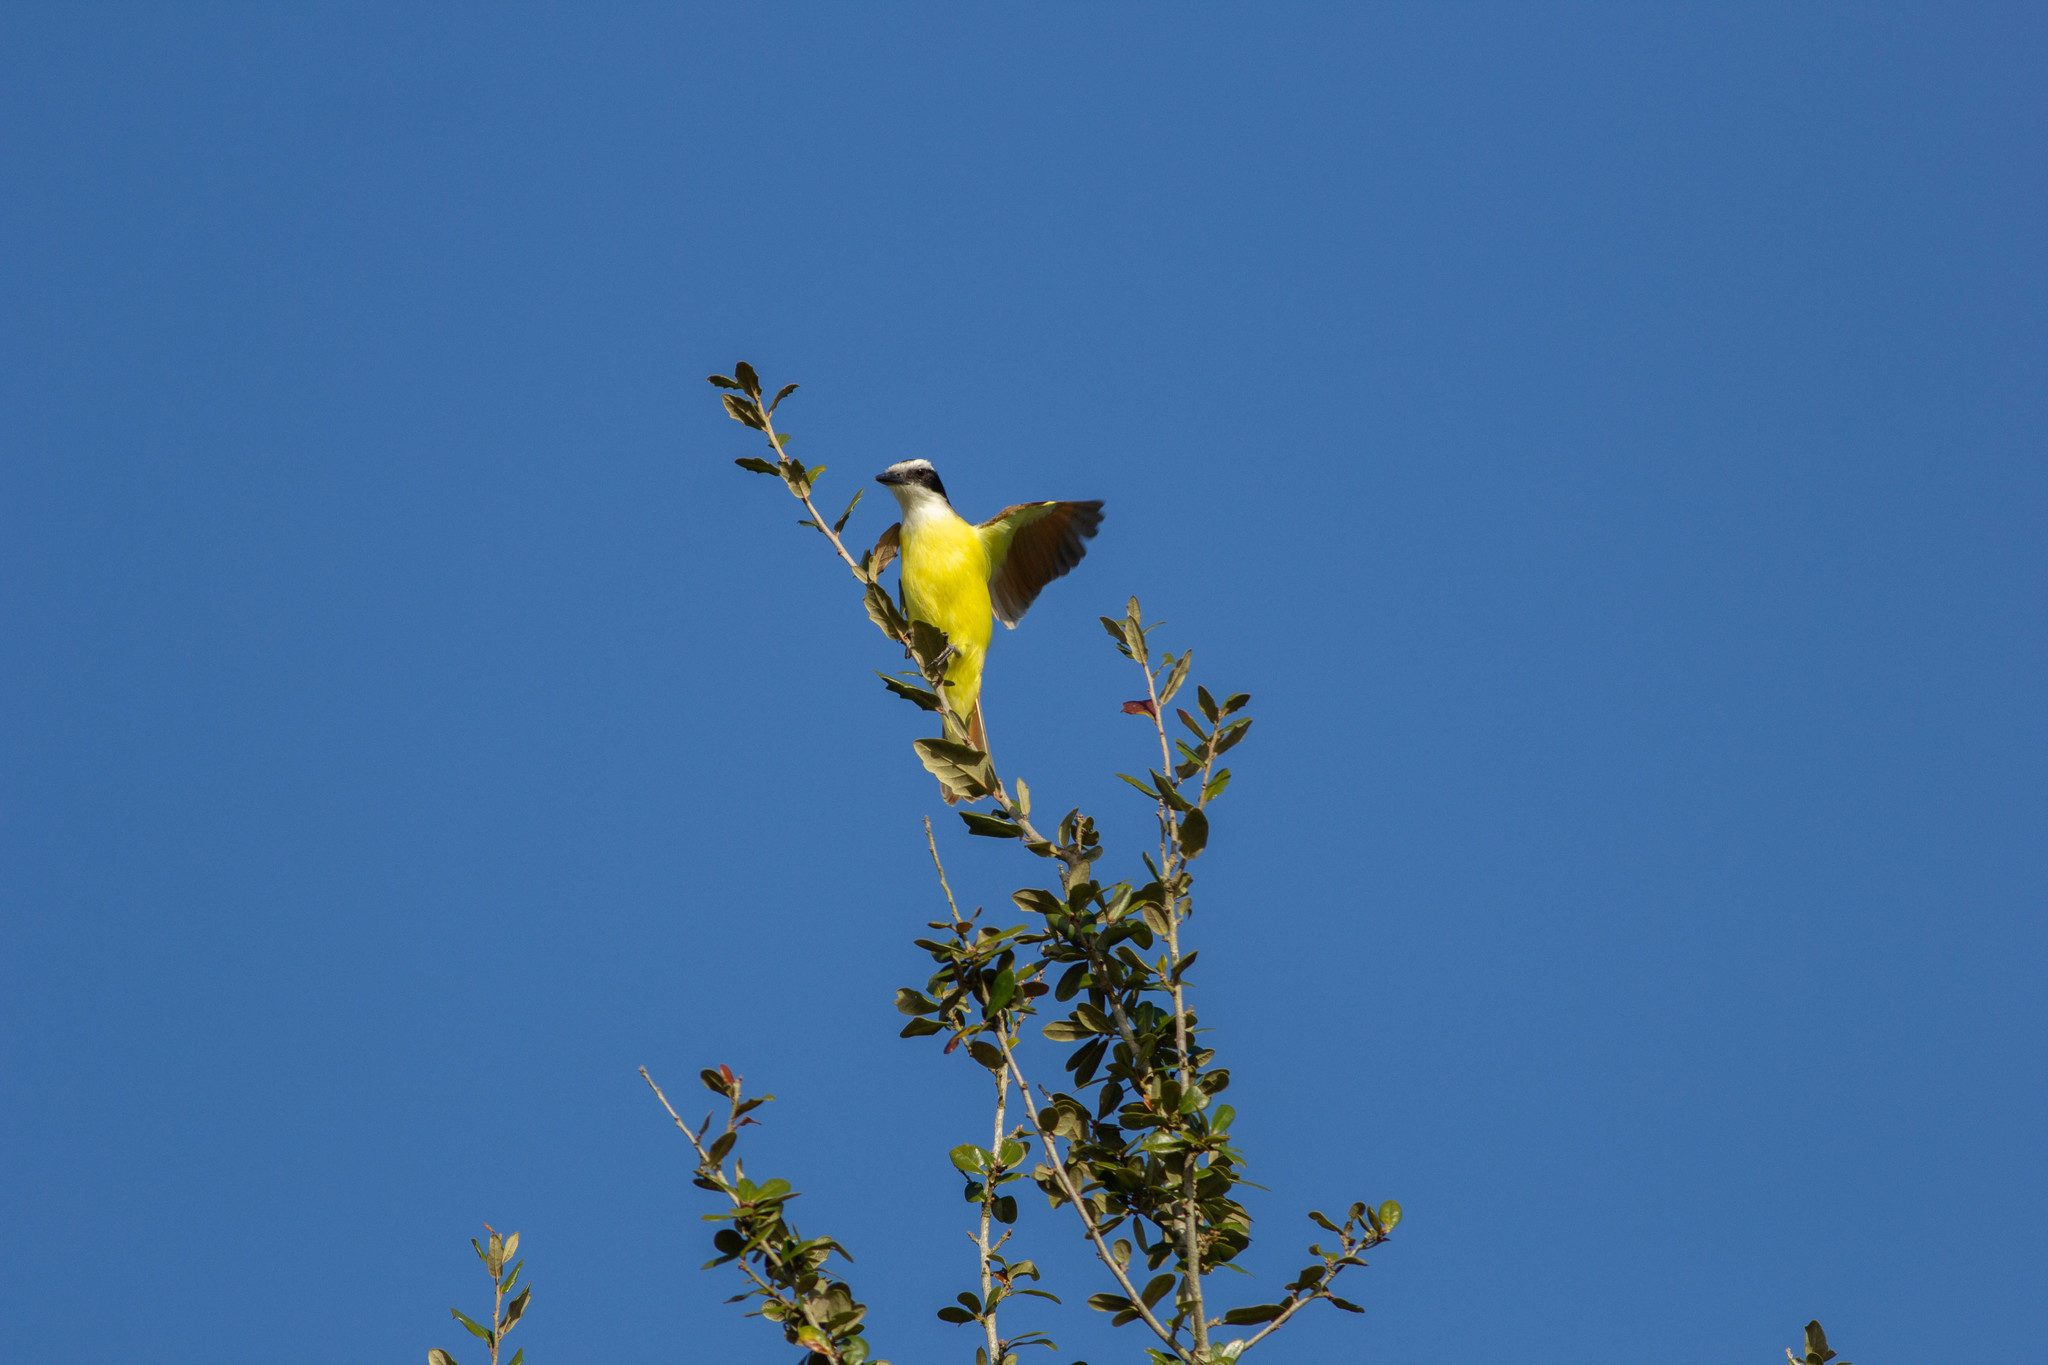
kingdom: Animalia
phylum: Chordata
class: Aves
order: Passeriformes
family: Tyrannidae
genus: Pitangus
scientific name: Pitangus sulphuratus
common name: Great kiskadee
